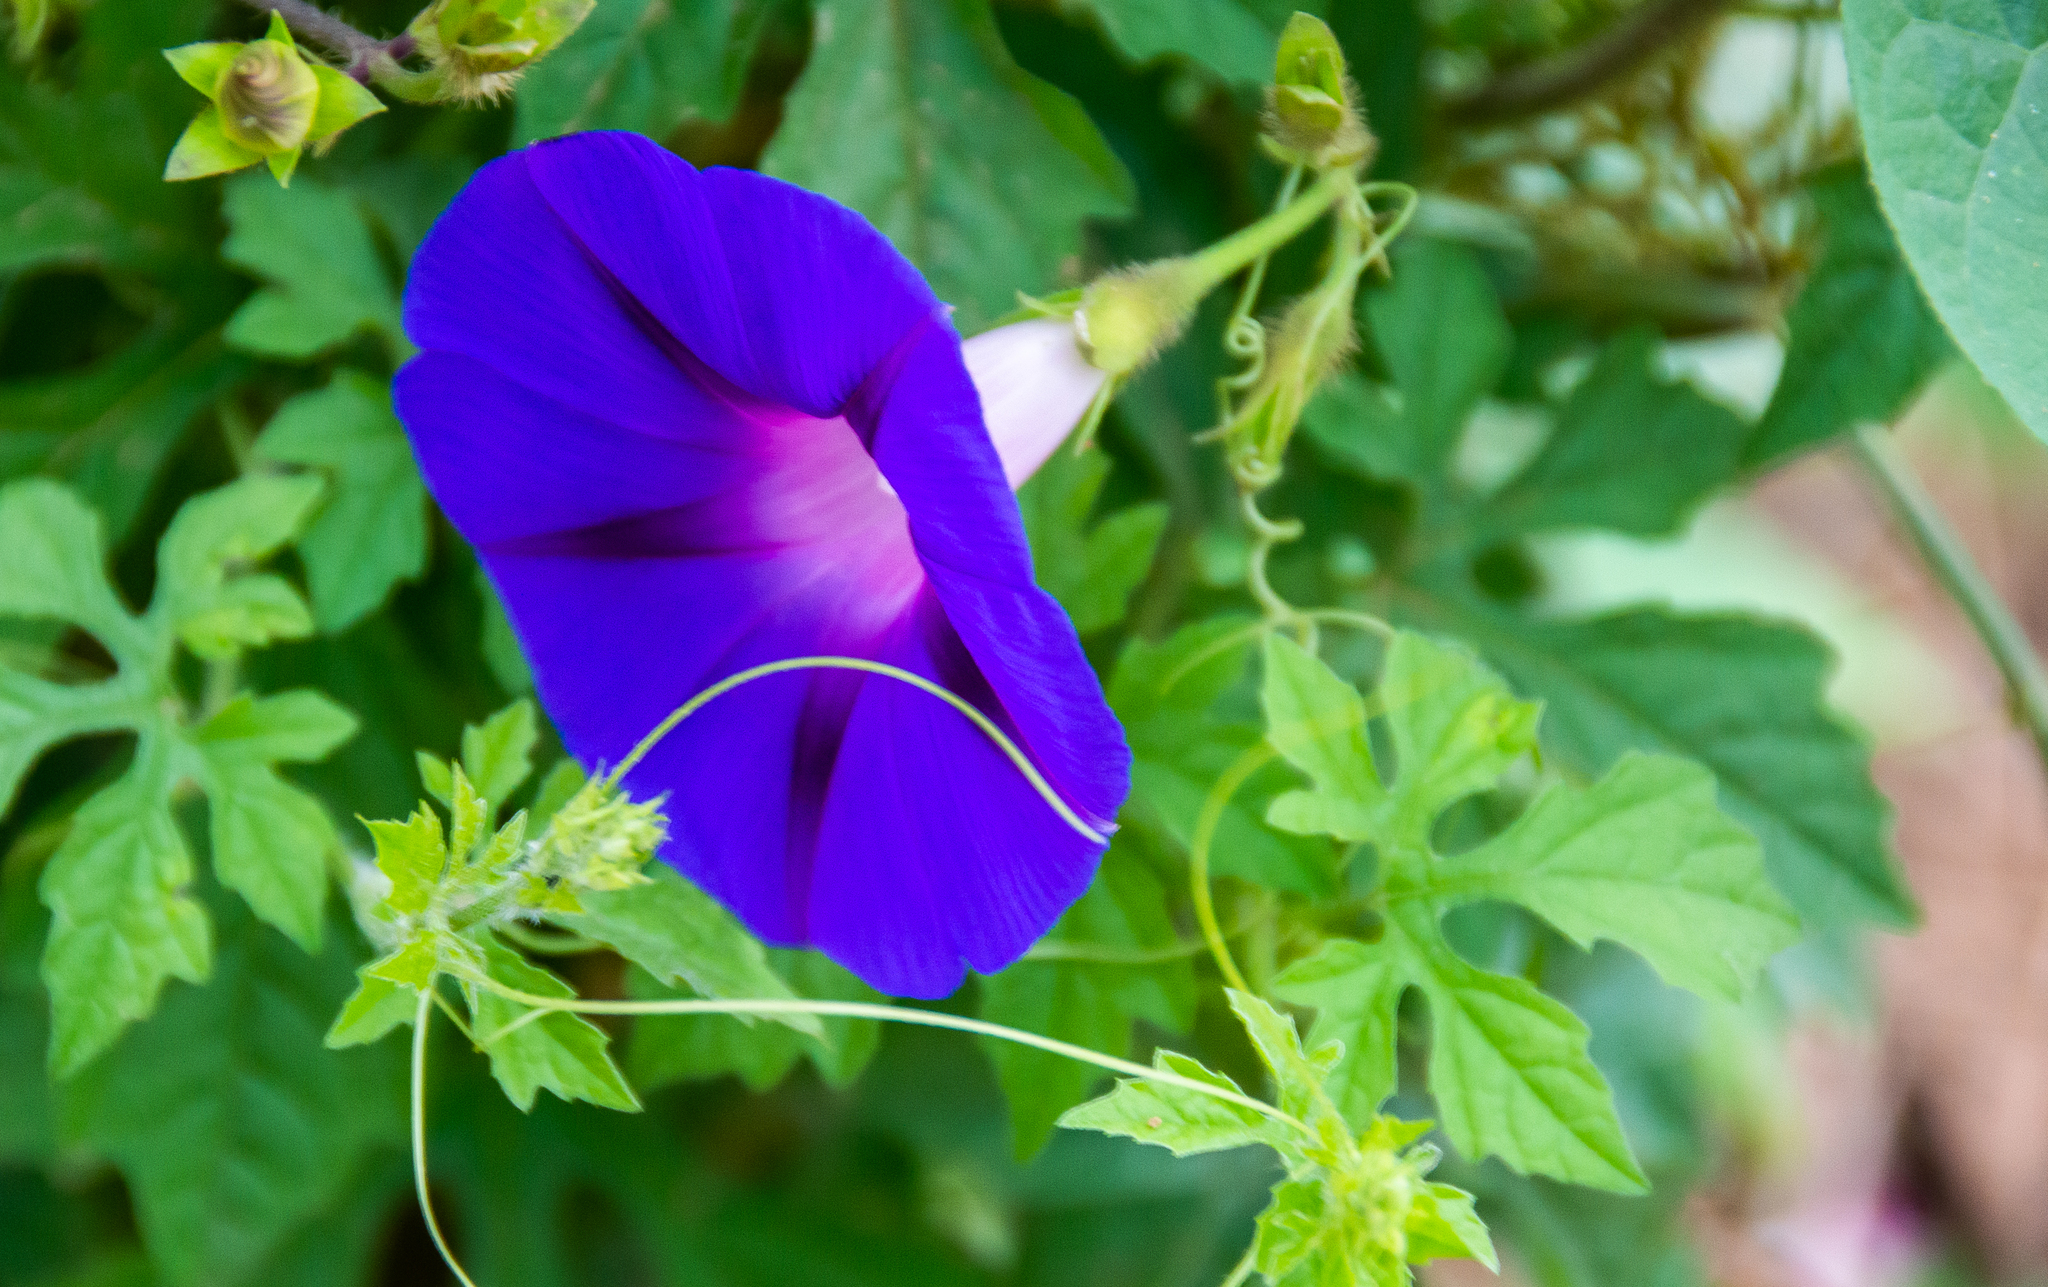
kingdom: Plantae
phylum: Tracheophyta
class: Magnoliopsida
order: Solanales
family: Convolvulaceae
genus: Ipomoea
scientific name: Ipomoea purpurea
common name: Common morning-glory
